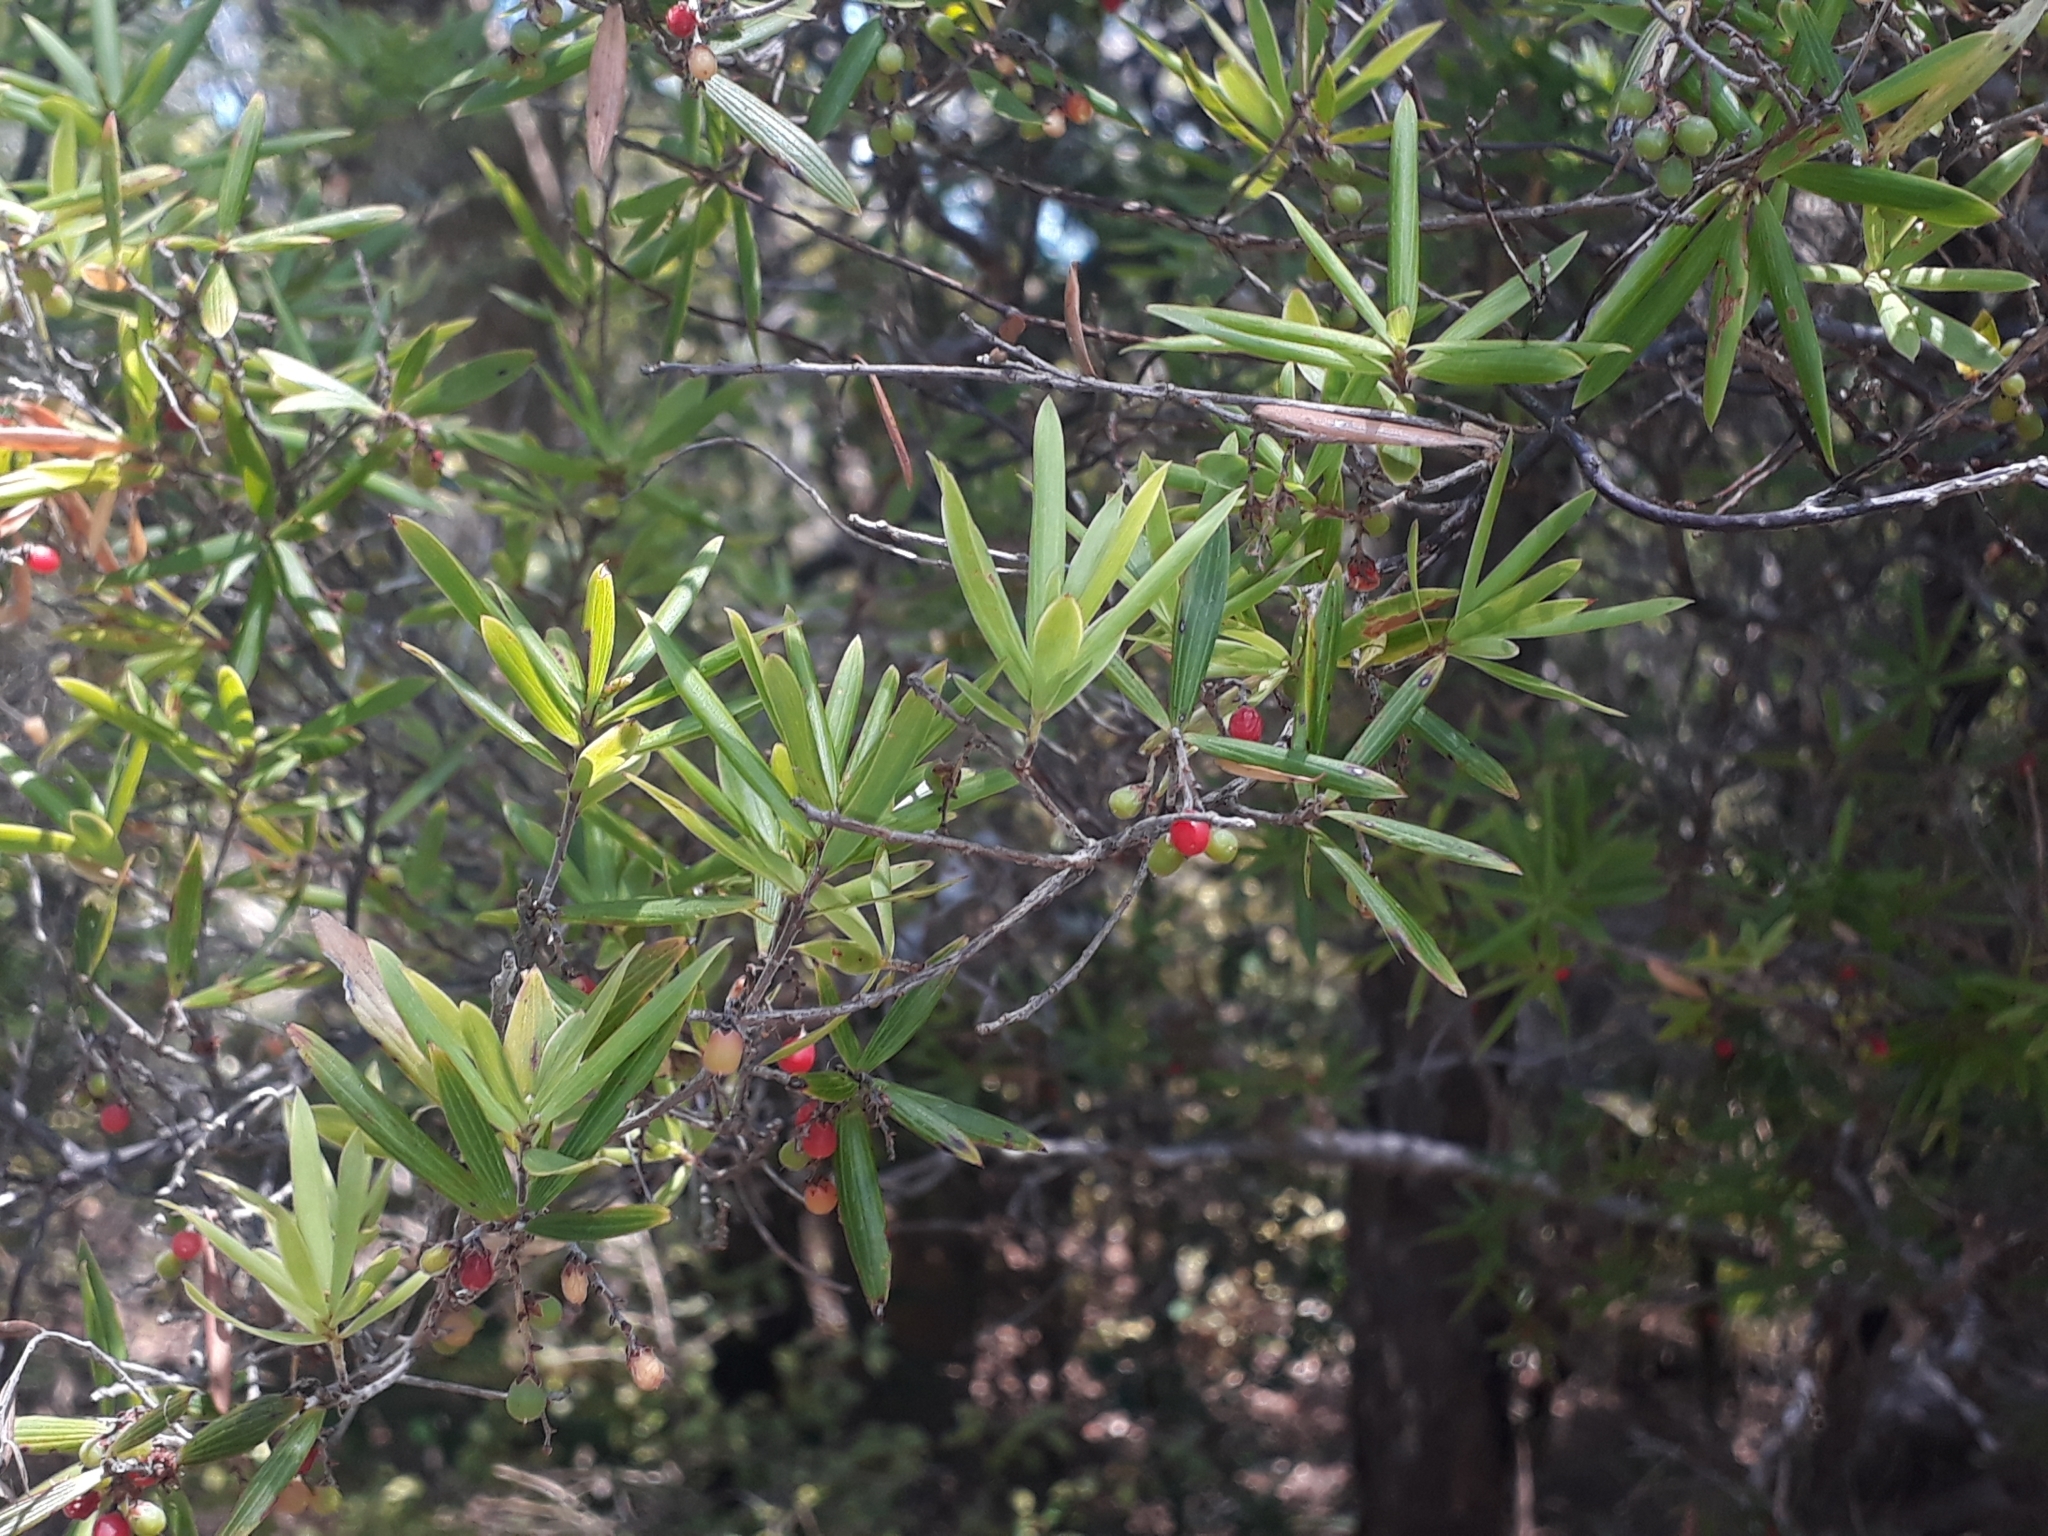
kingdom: Plantae
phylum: Tracheophyta
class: Magnoliopsida
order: Ericales
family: Ericaceae
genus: Leucopogon
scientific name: Leucopogon fasciculatus
